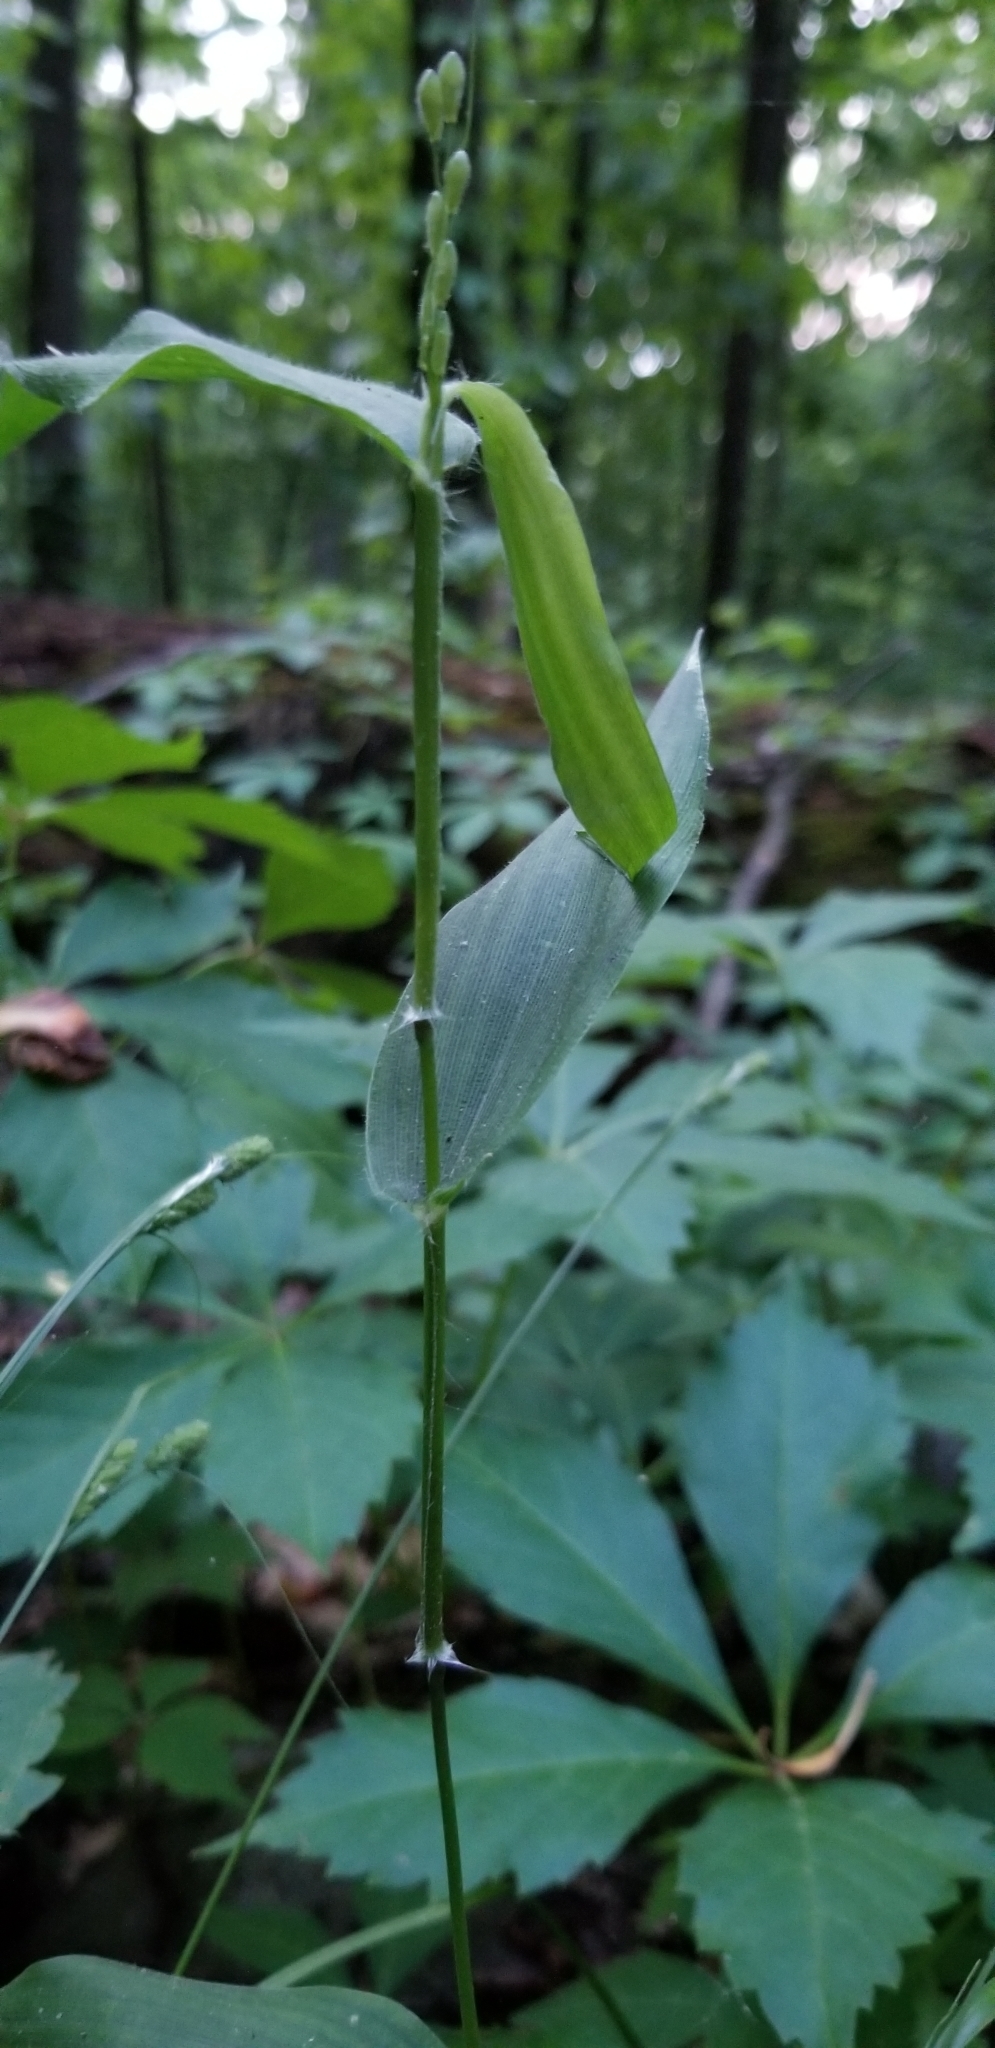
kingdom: Plantae
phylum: Tracheophyta
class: Liliopsida
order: Poales
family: Poaceae
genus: Dichanthelium
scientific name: Dichanthelium boscii
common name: Bosc's panic grass
